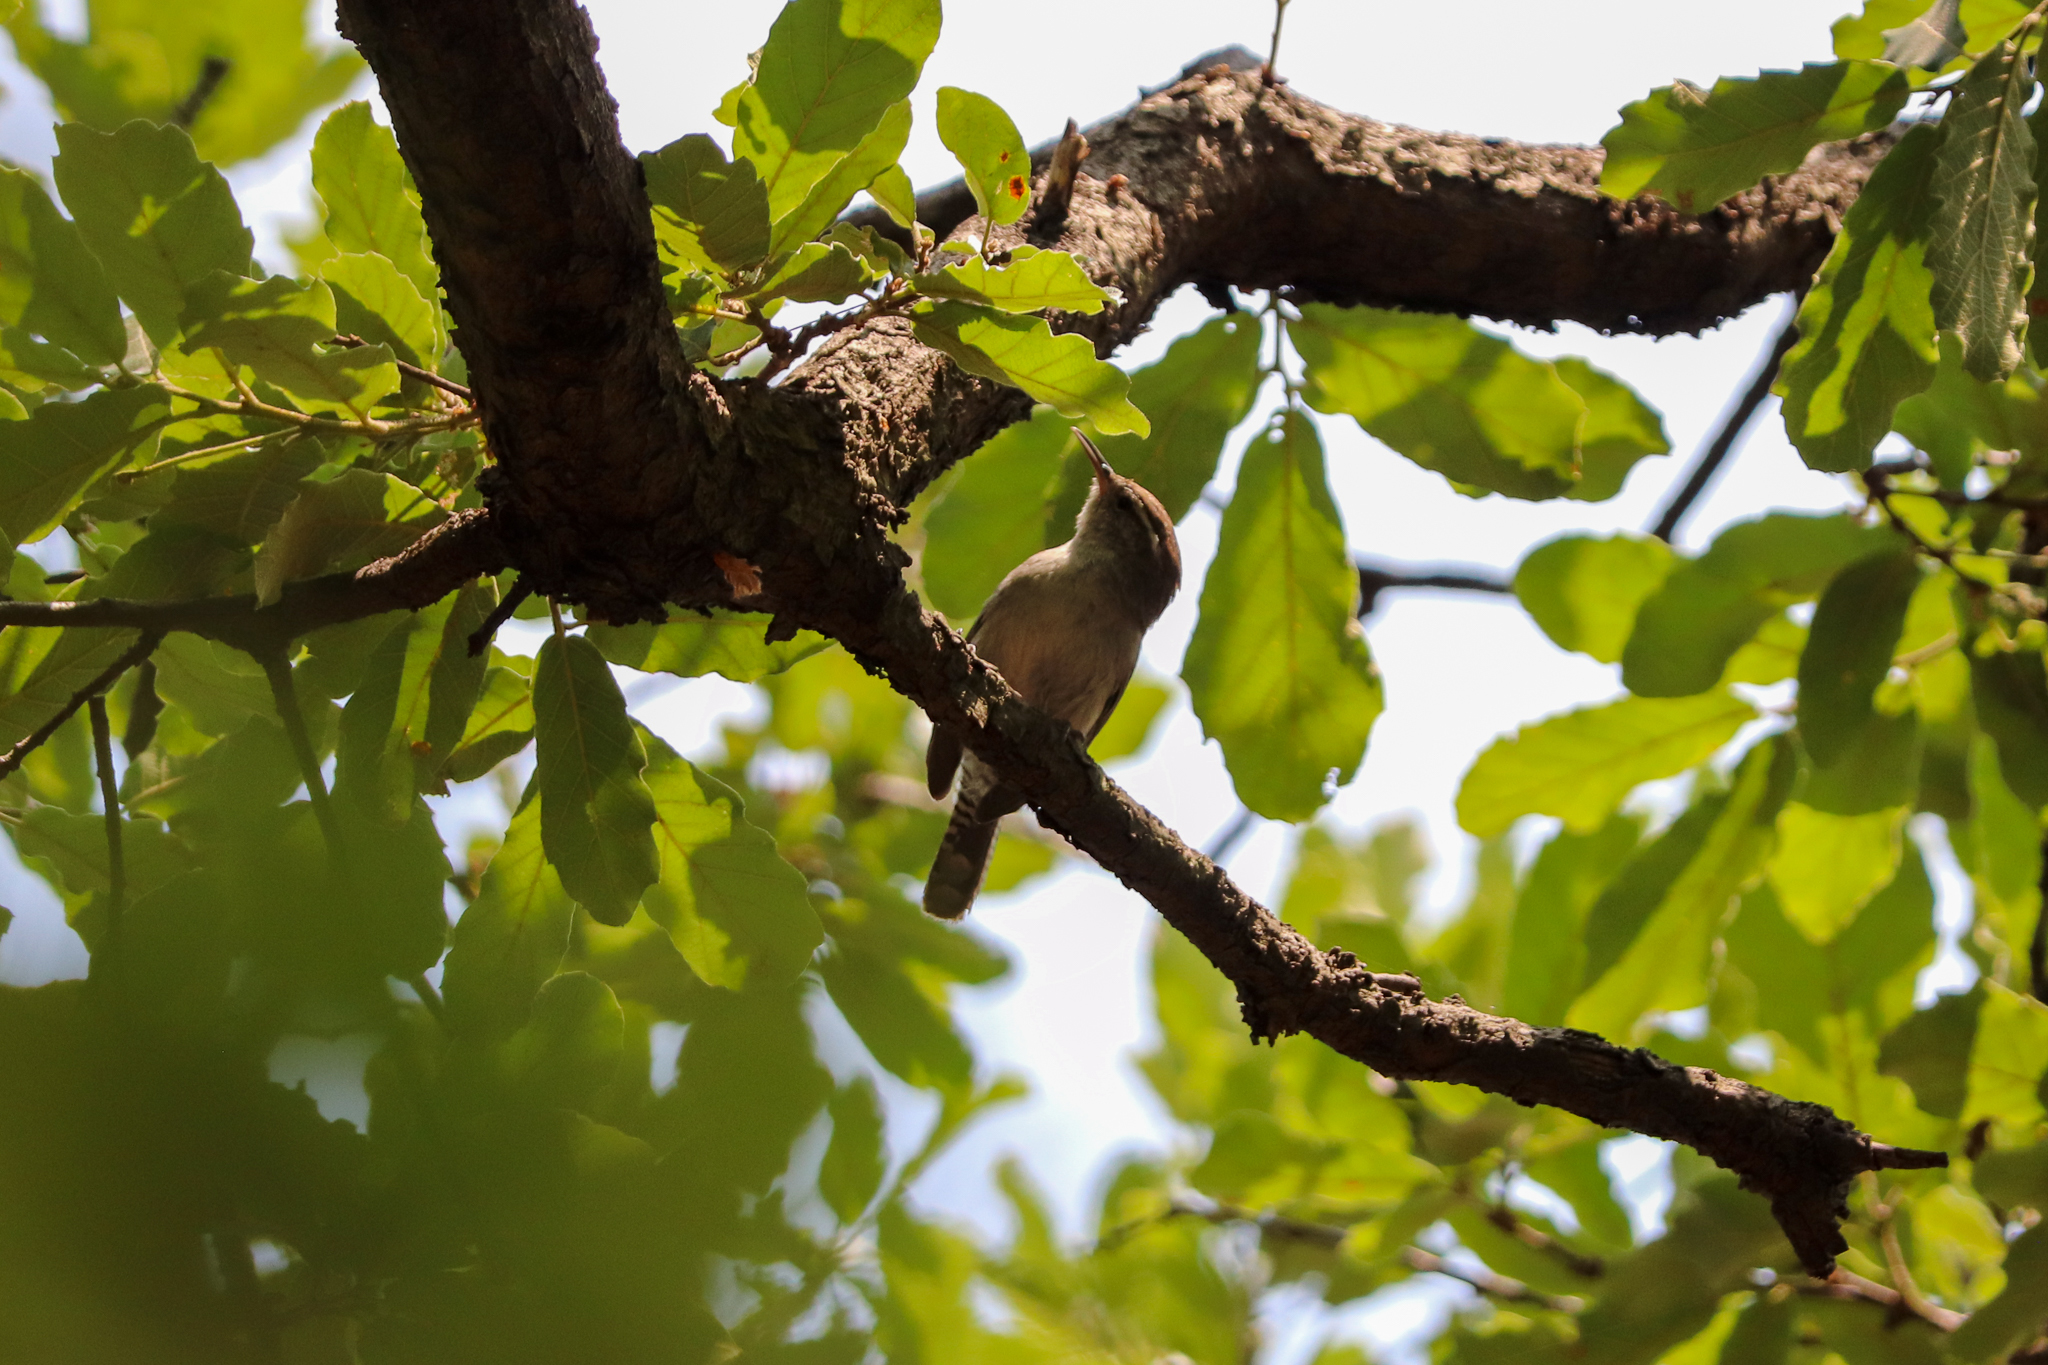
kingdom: Animalia
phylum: Chordata
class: Aves
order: Passeriformes
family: Troglodytidae
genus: Thryomanes
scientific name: Thryomanes bewickii
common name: Bewick's wren
